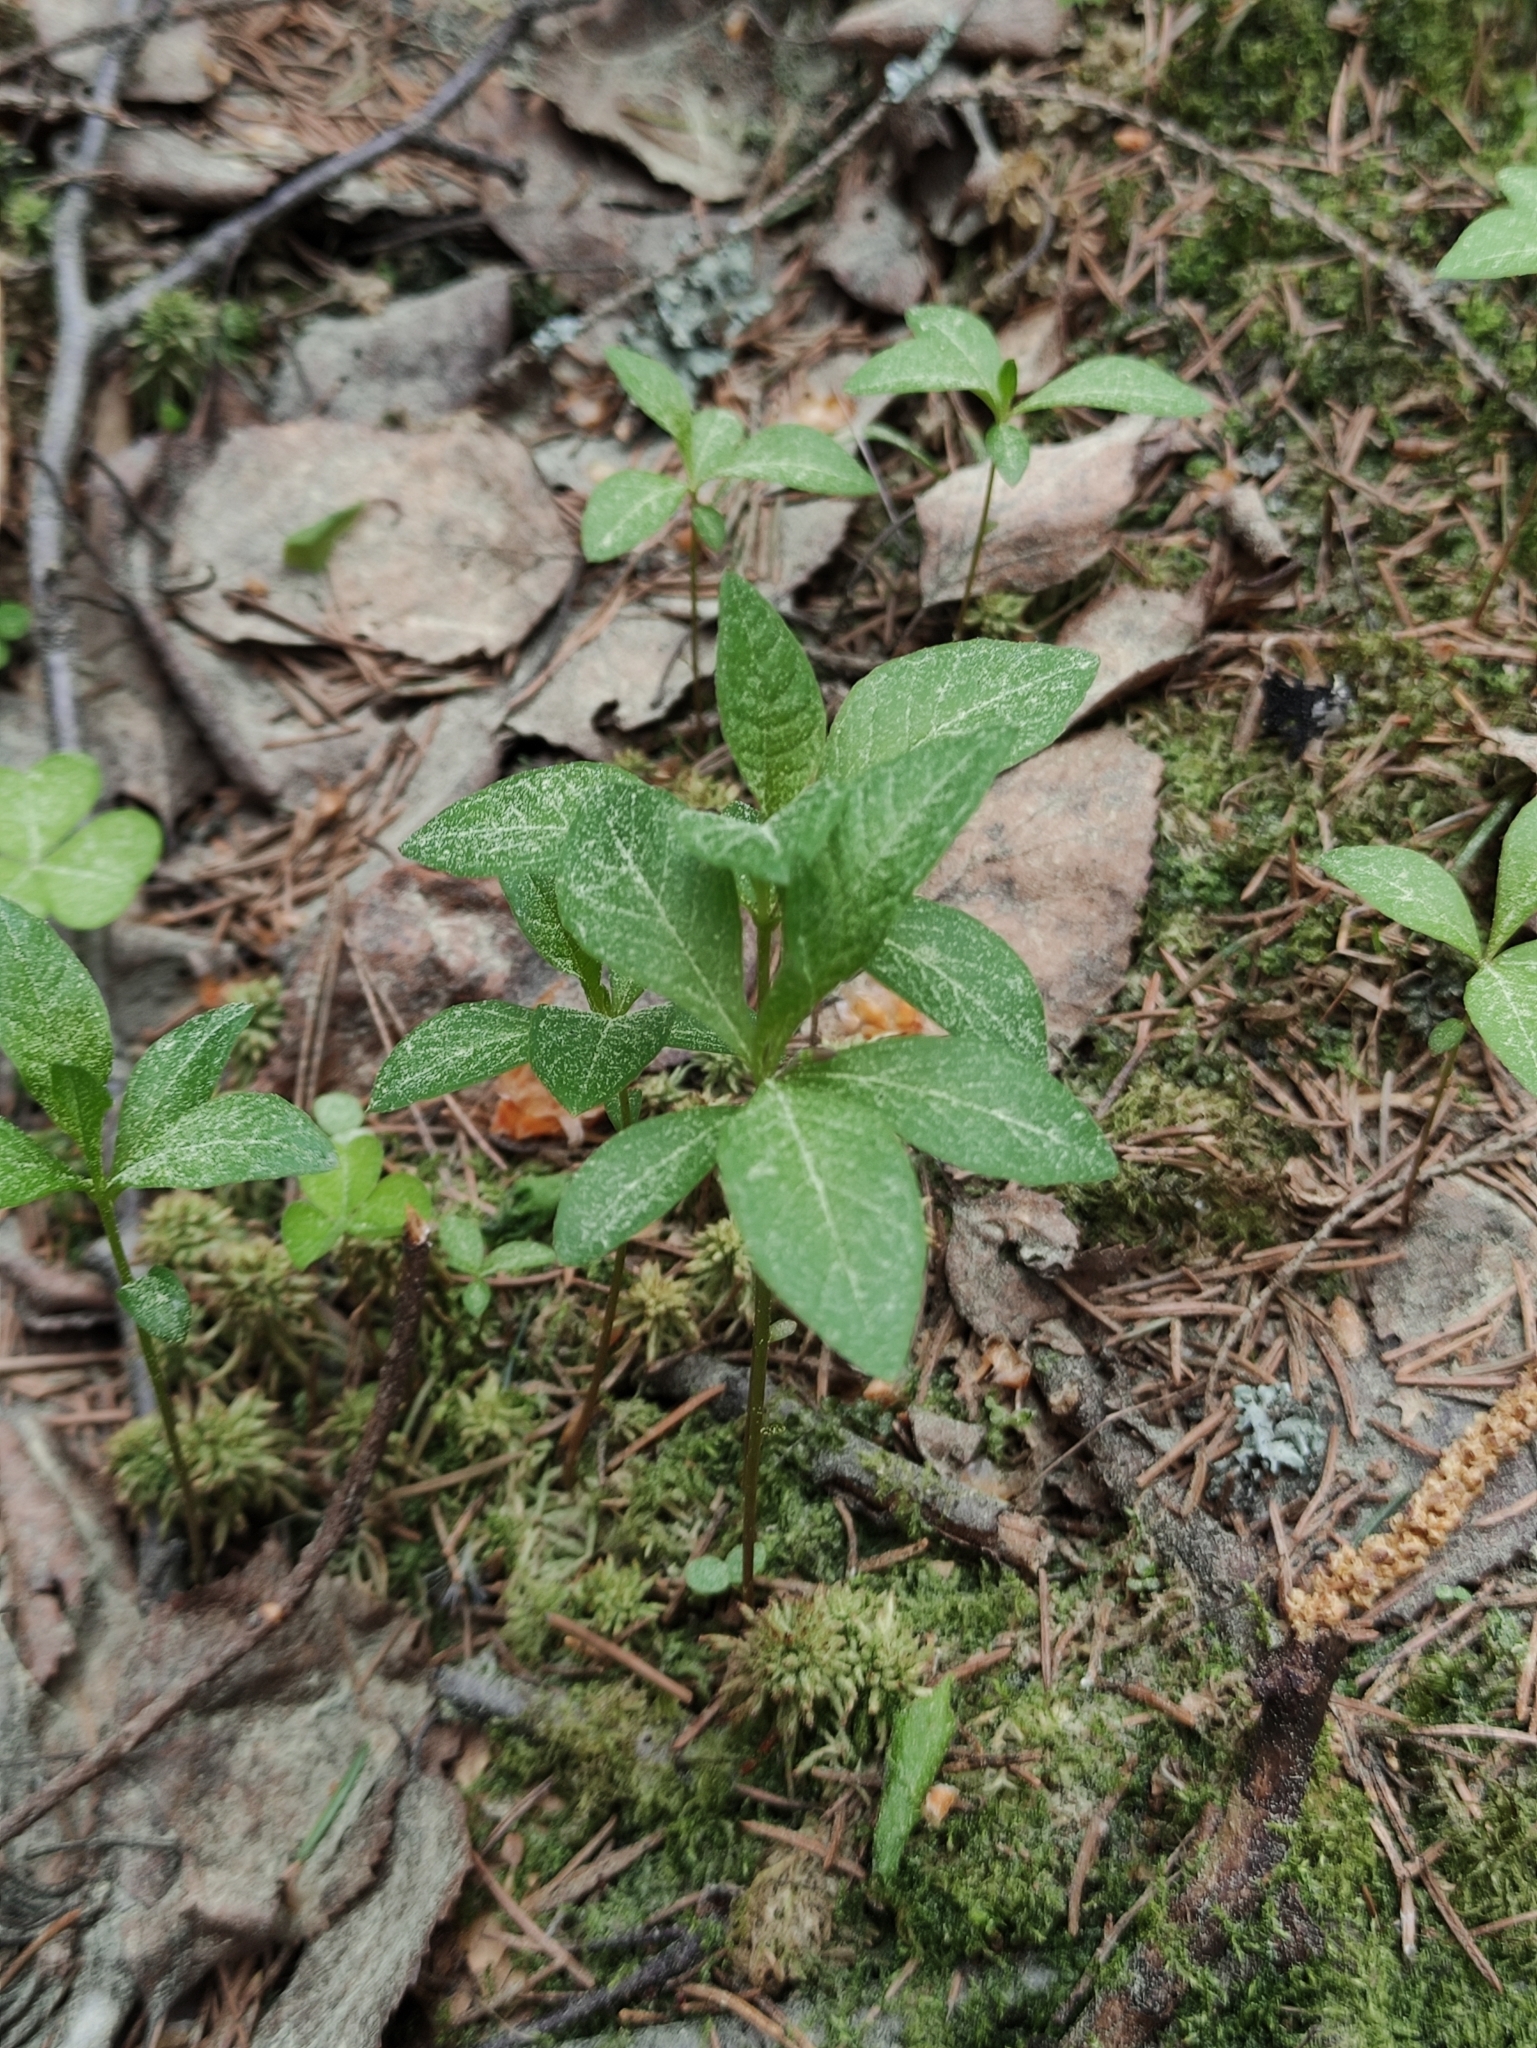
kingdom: Plantae
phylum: Tracheophyta
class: Magnoliopsida
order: Ericales
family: Primulaceae
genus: Lysimachia
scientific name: Lysimachia europaea
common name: Arctic starflower
